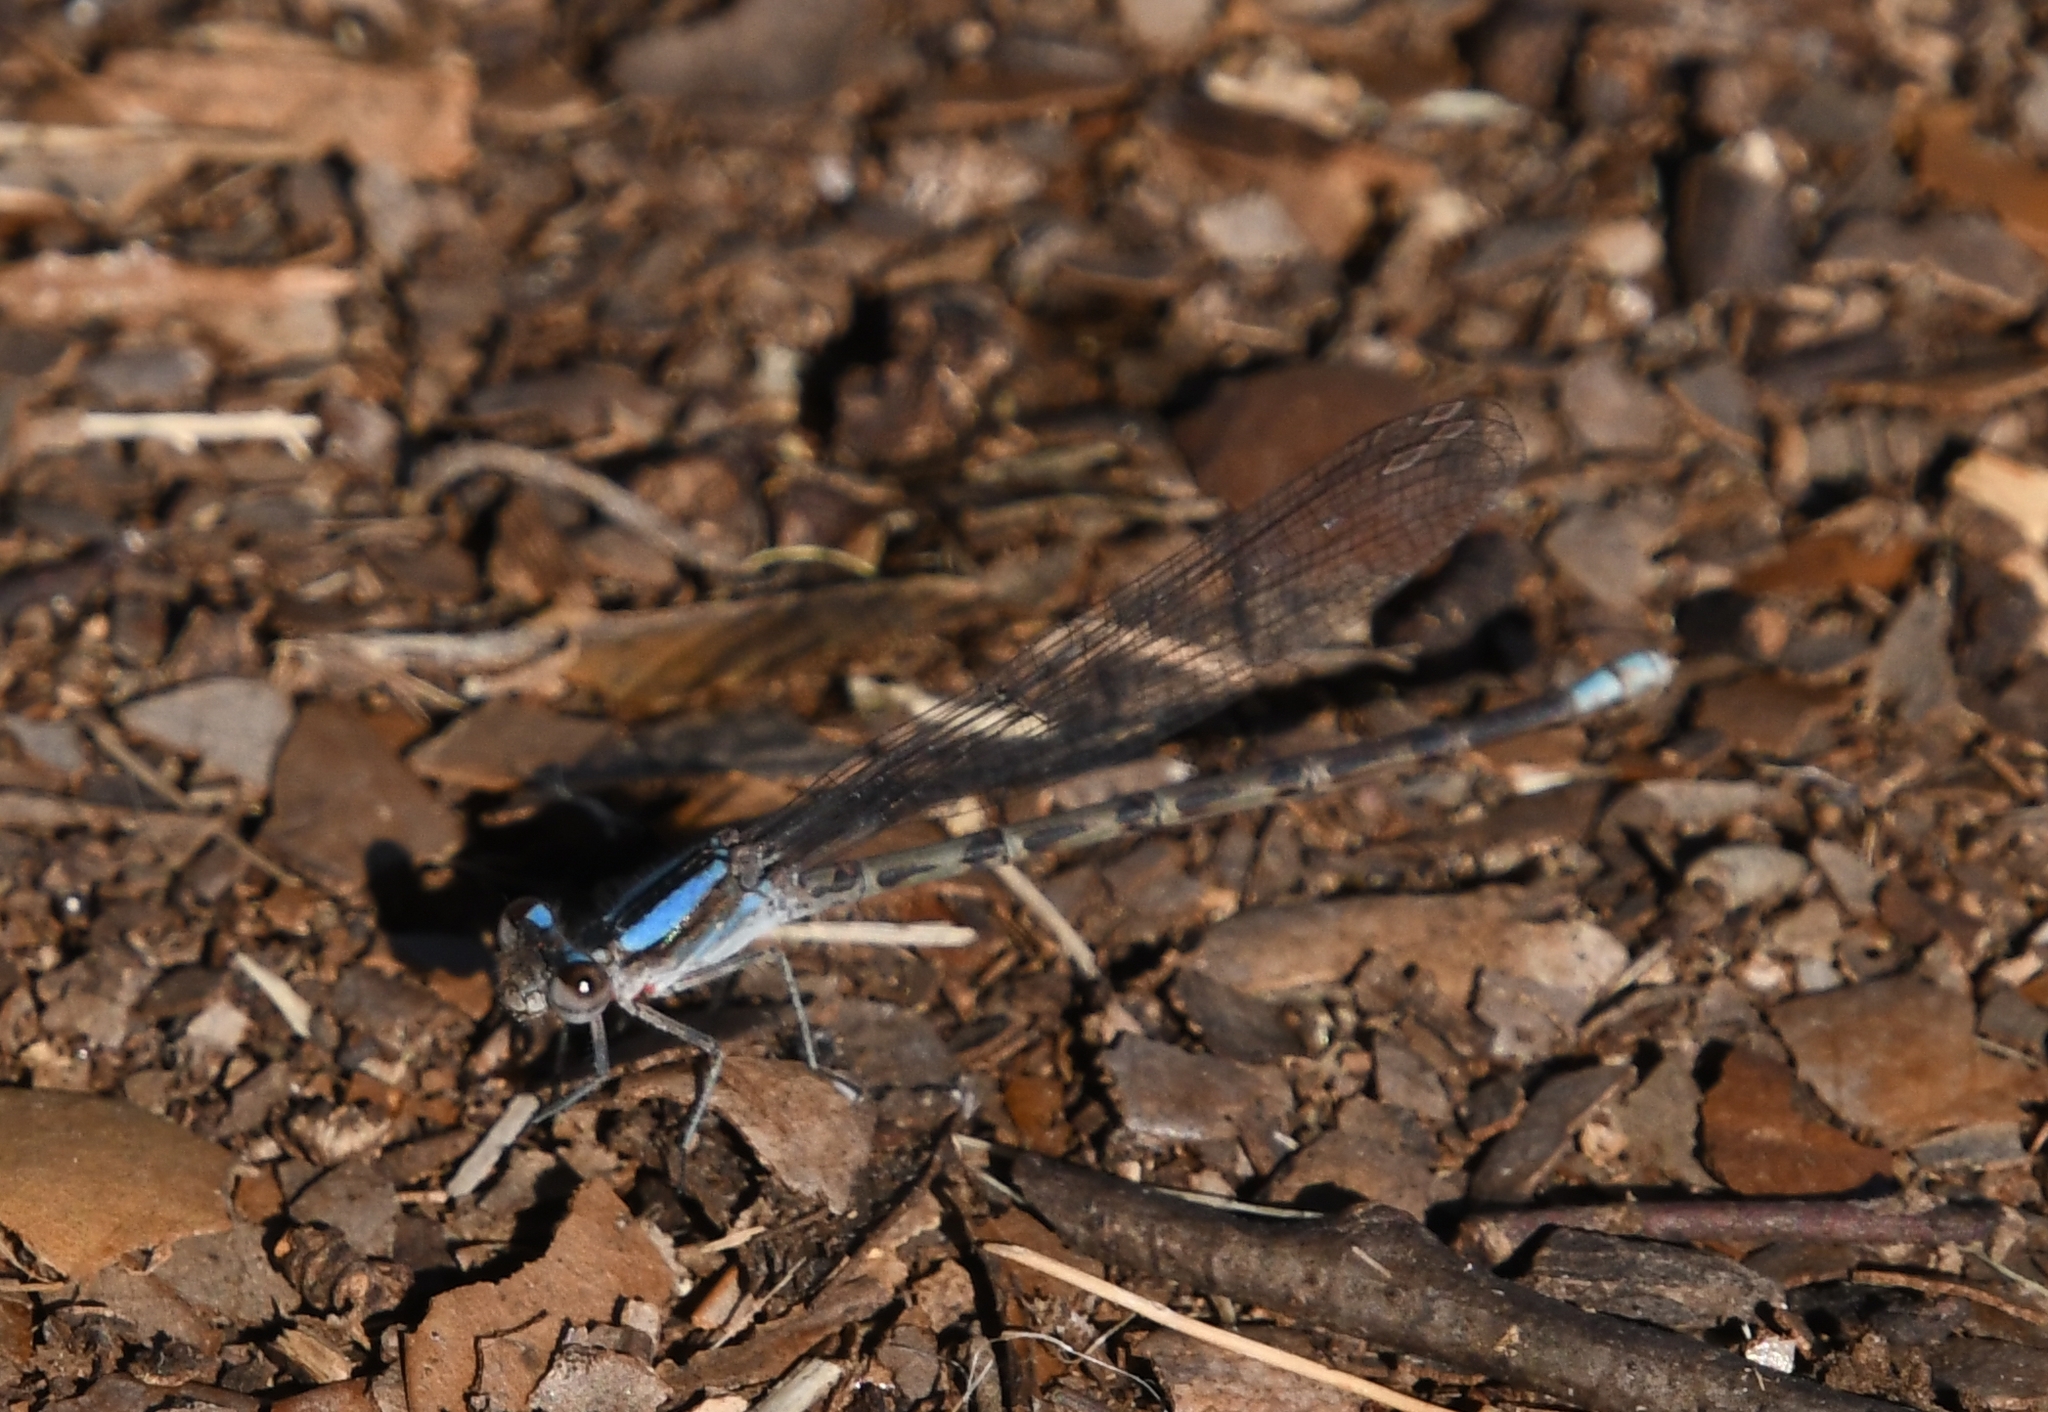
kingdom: Animalia
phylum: Arthropoda
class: Insecta
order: Odonata
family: Coenagrionidae
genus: Argia
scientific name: Argia immunda
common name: Kiowa dancer
